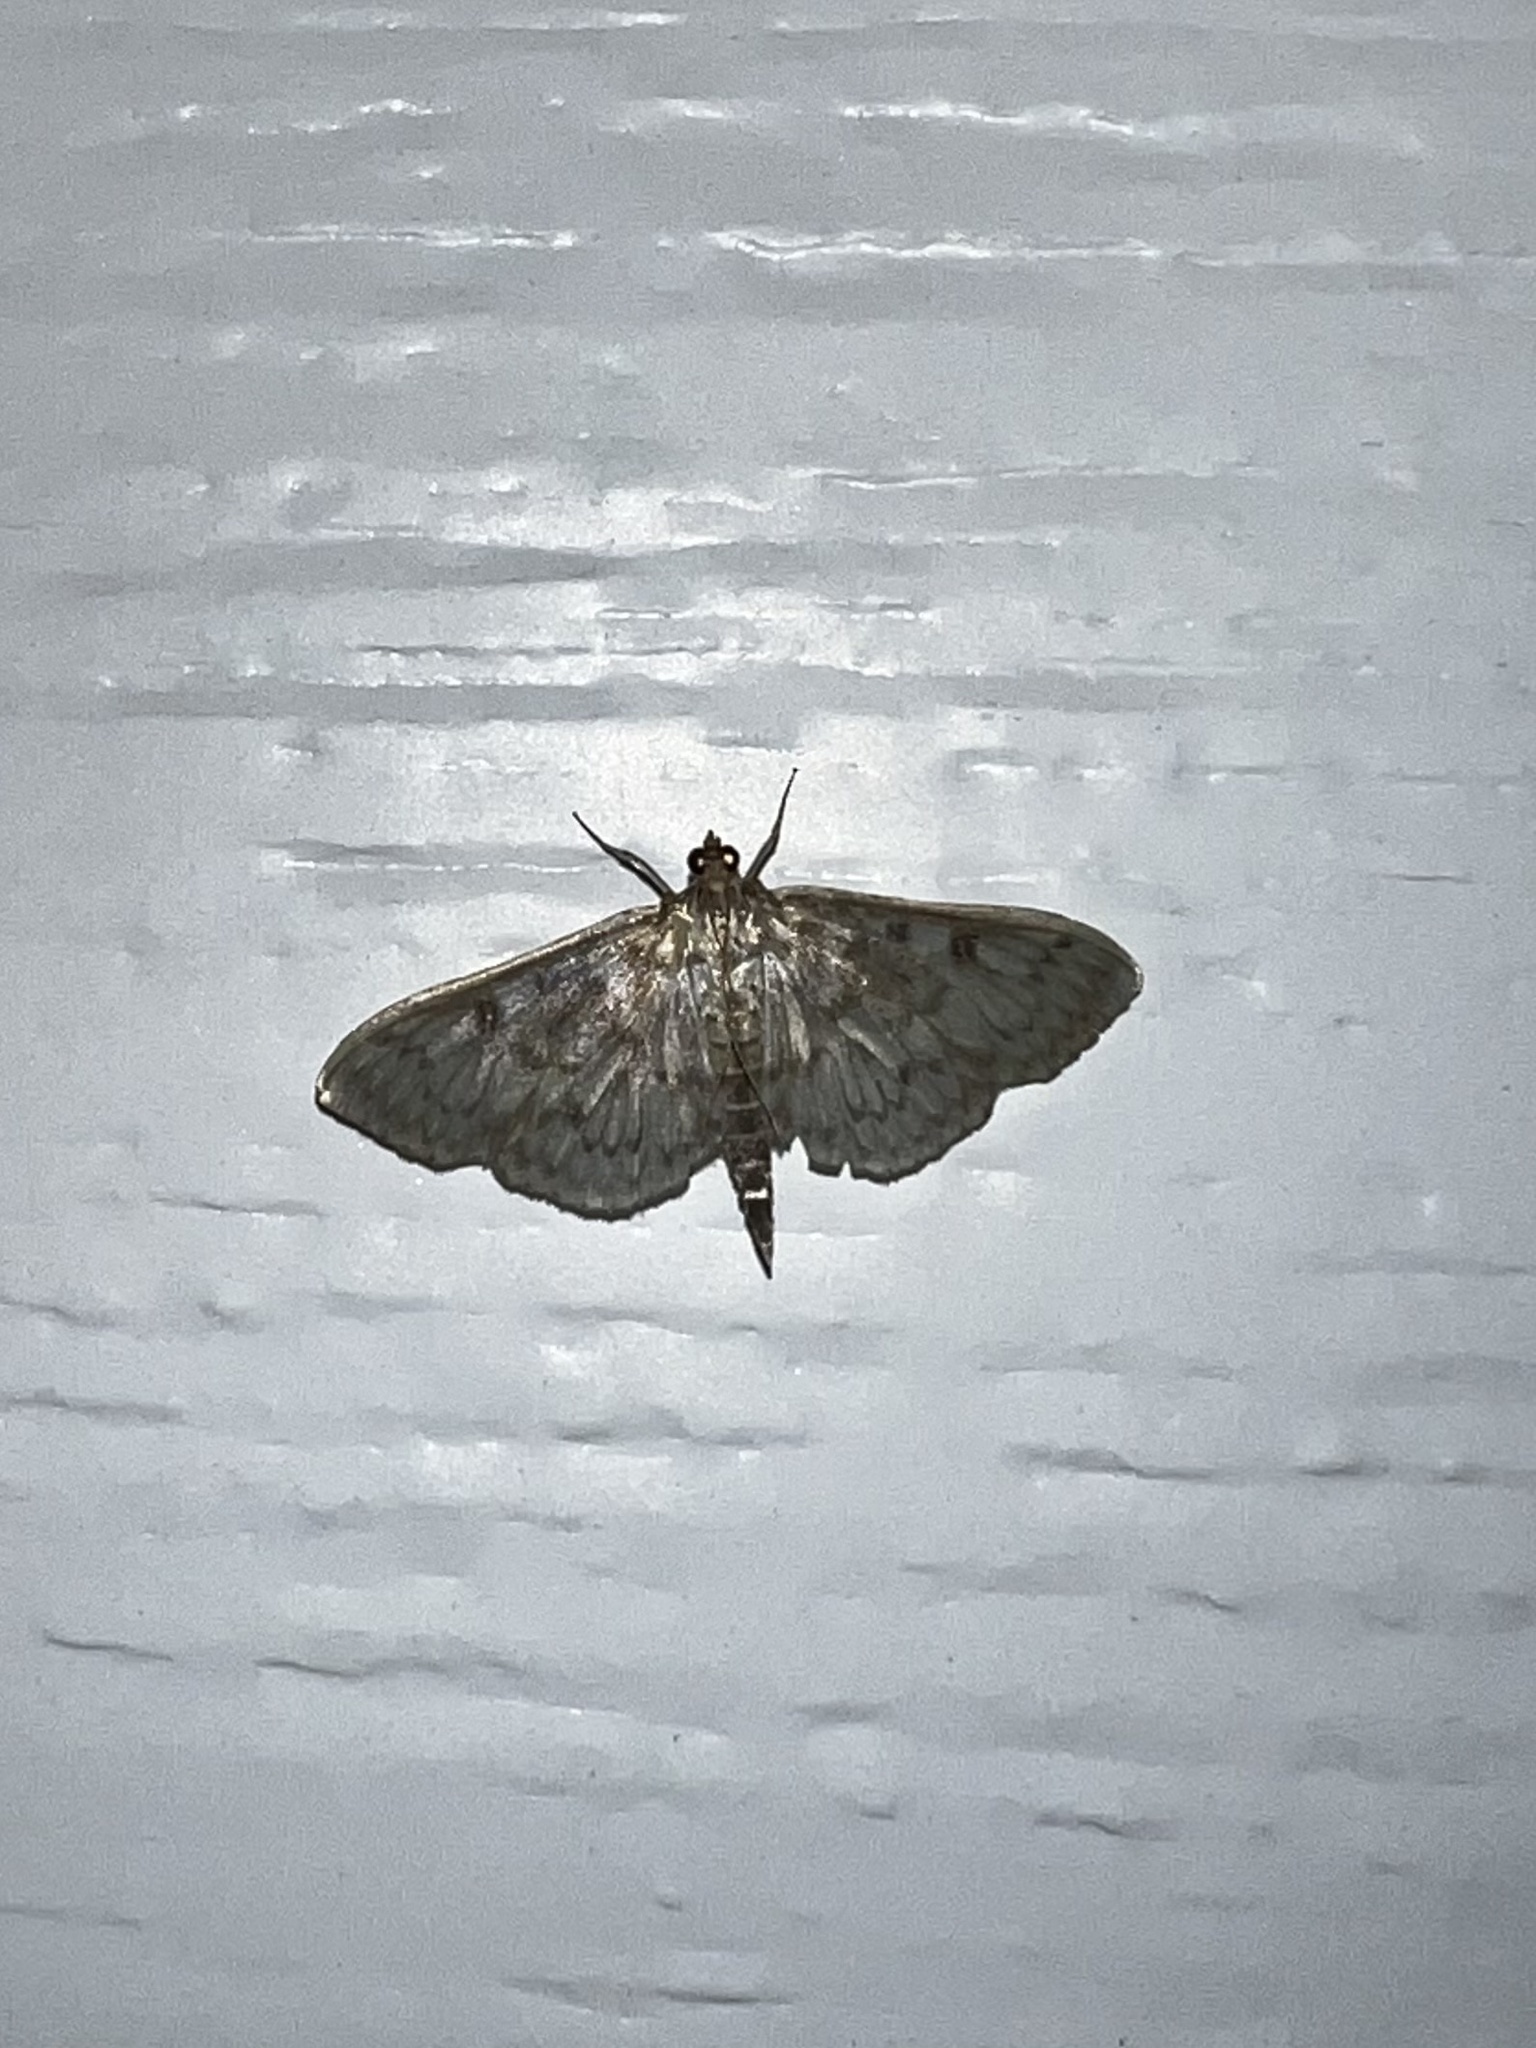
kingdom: Animalia
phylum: Arthropoda
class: Insecta
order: Lepidoptera
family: Crambidae
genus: Herpetogramma
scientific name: Herpetogramma aquilonalis
